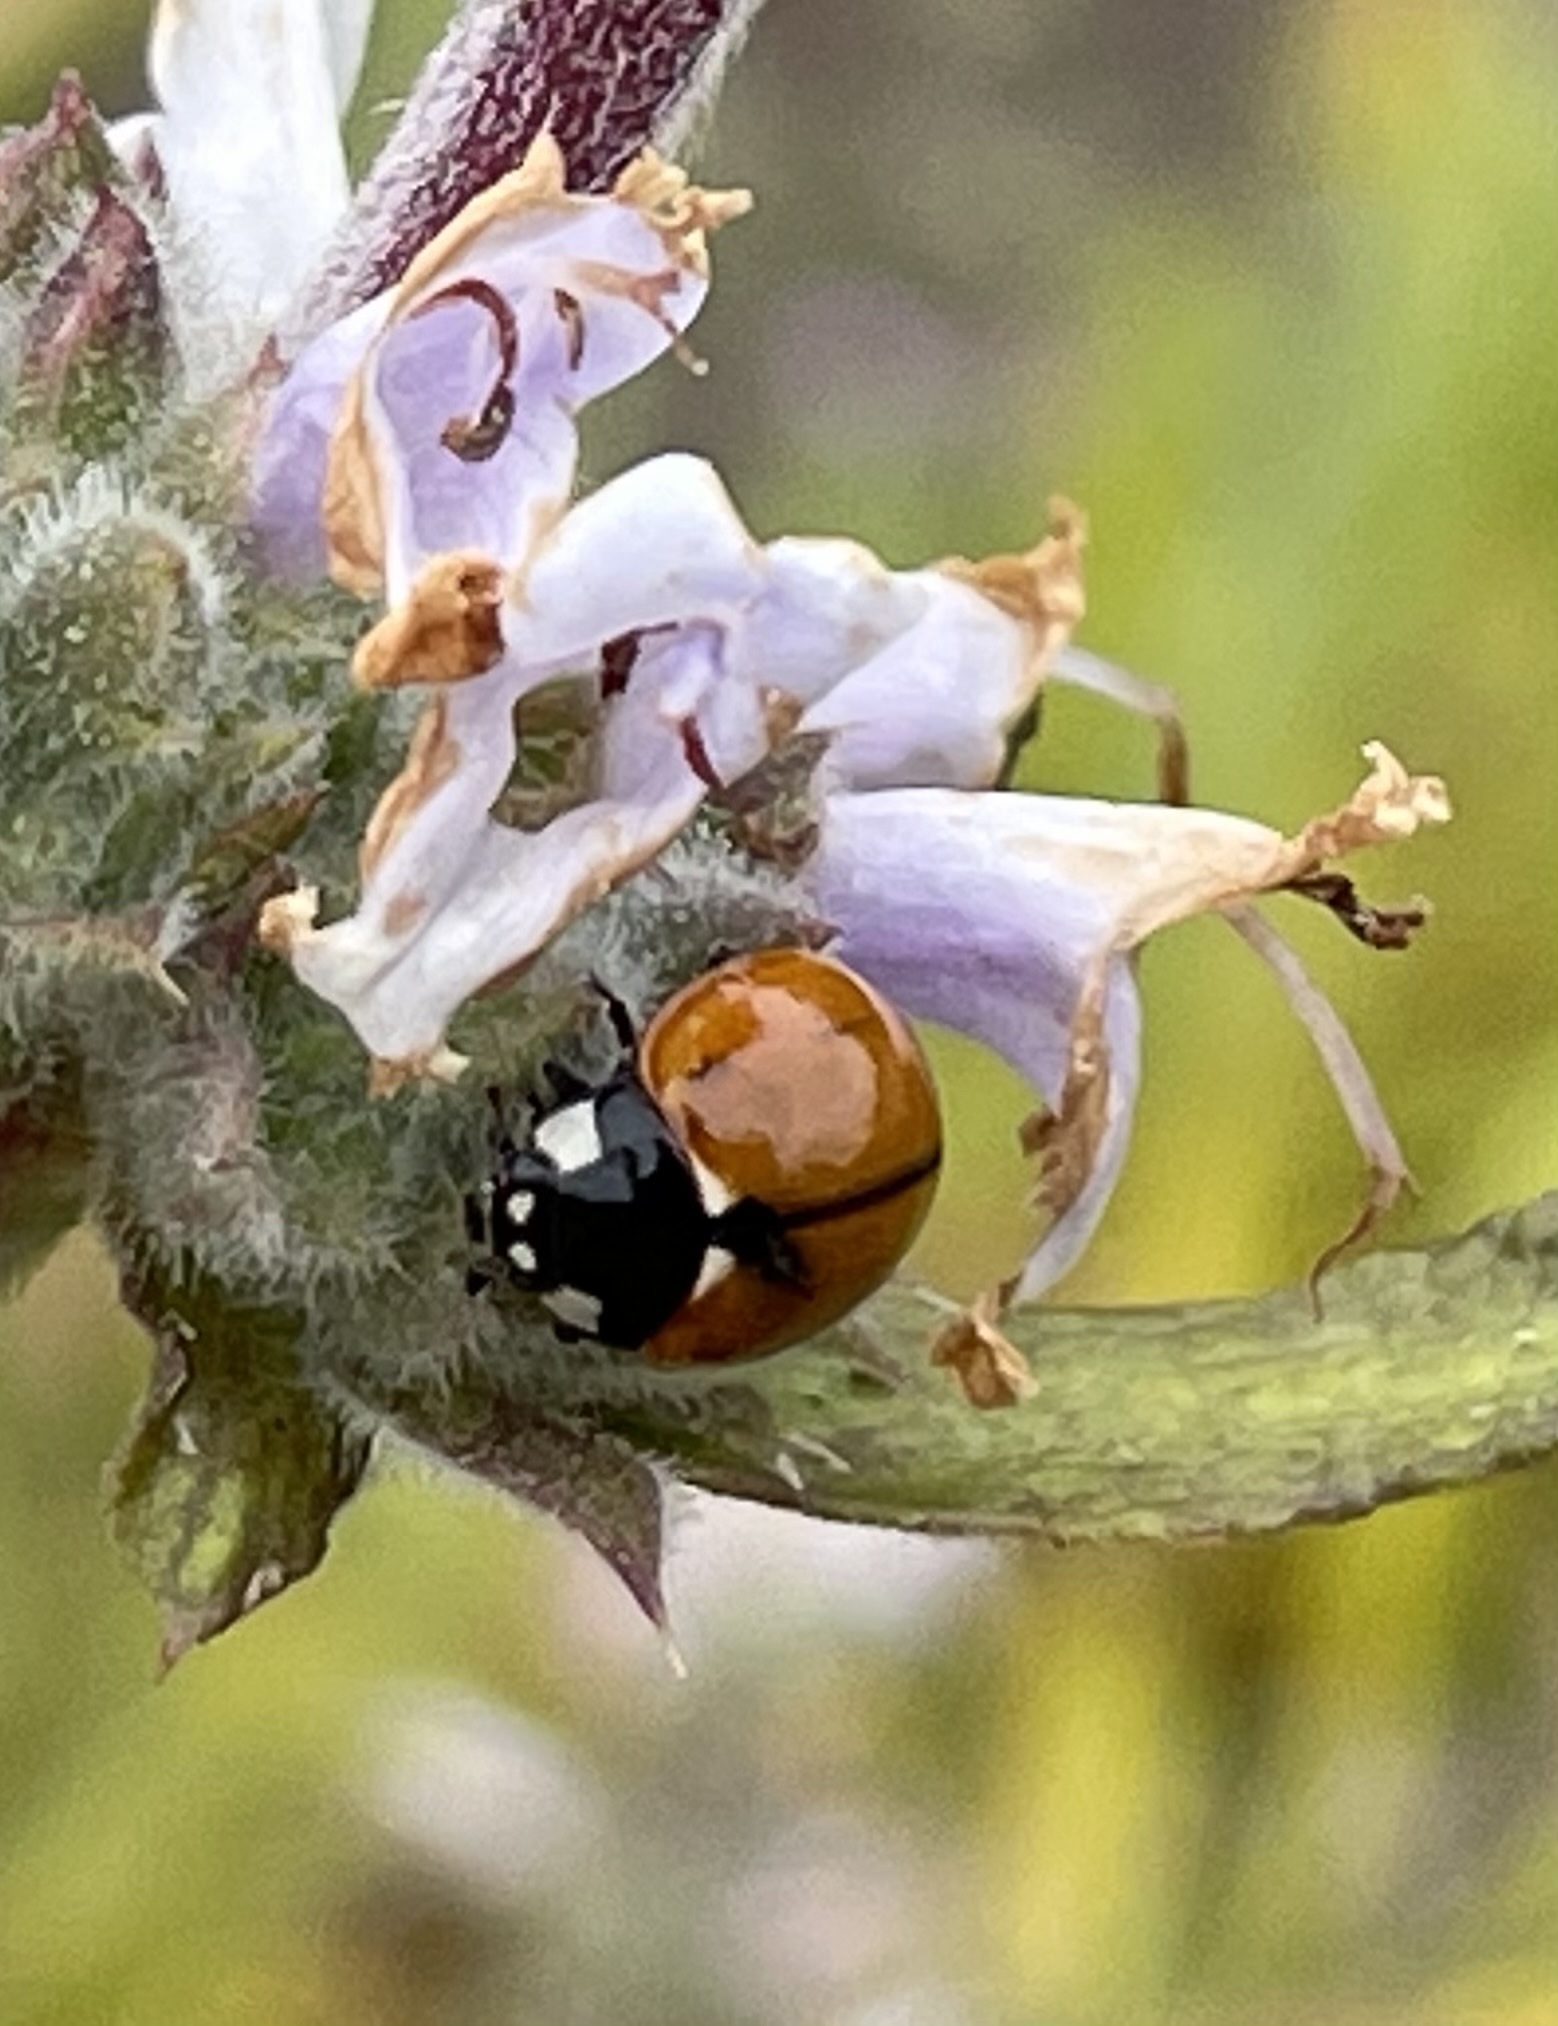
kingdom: Animalia
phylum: Arthropoda
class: Insecta
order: Coleoptera
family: Coccinellidae
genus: Coccinella
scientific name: Coccinella californica
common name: Lady beetle
